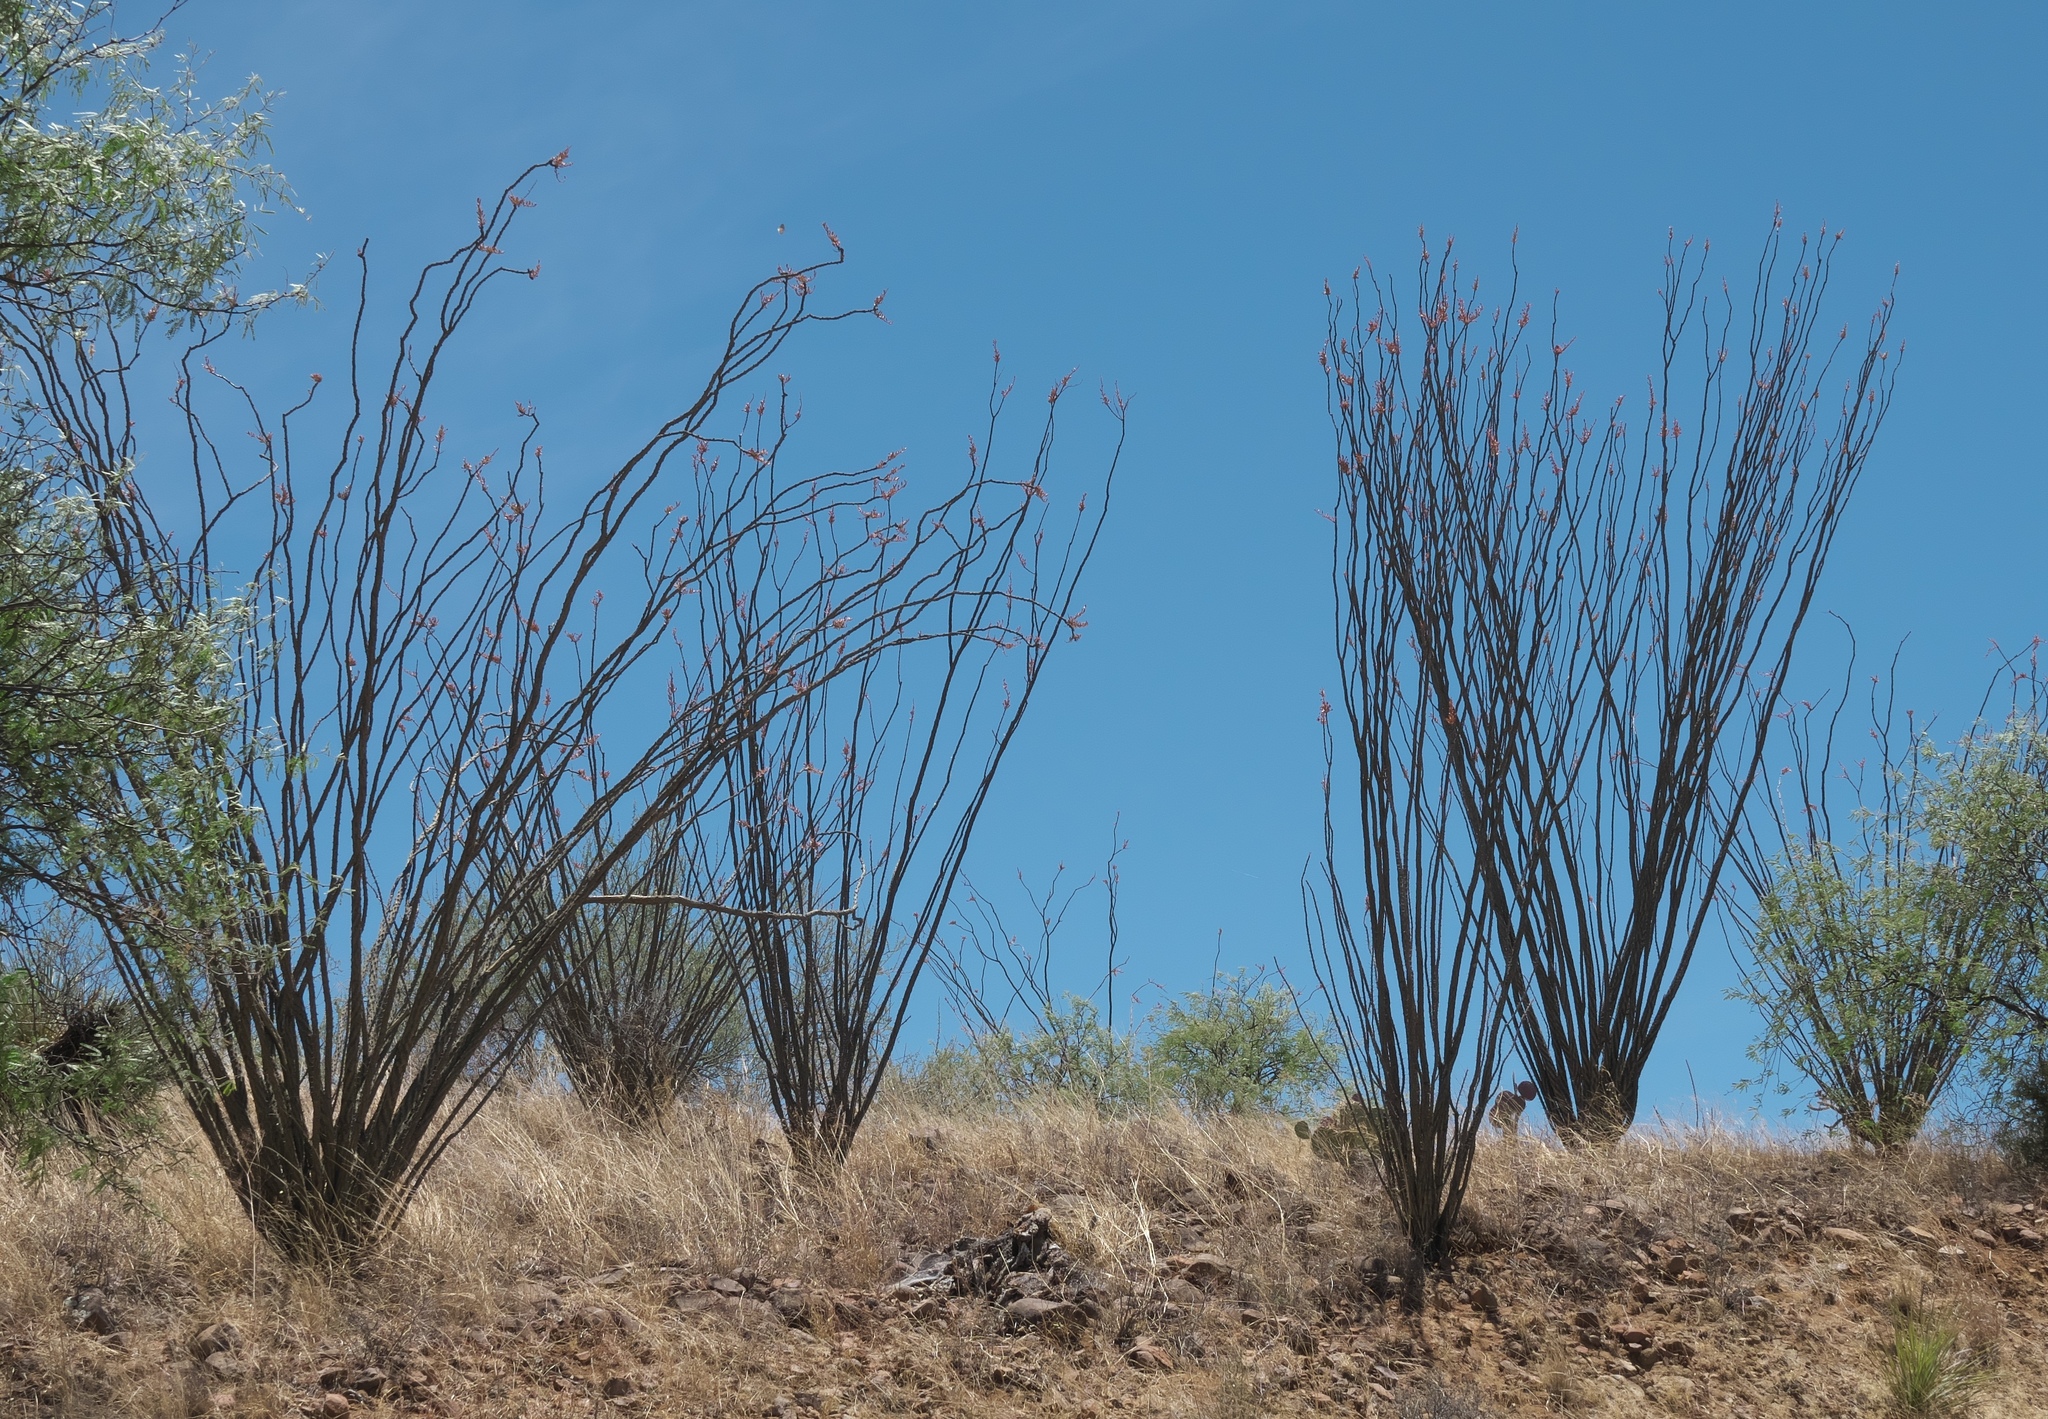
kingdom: Plantae
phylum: Tracheophyta
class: Magnoliopsida
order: Ericales
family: Fouquieriaceae
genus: Fouquieria
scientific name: Fouquieria splendens
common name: Vine-cactus
